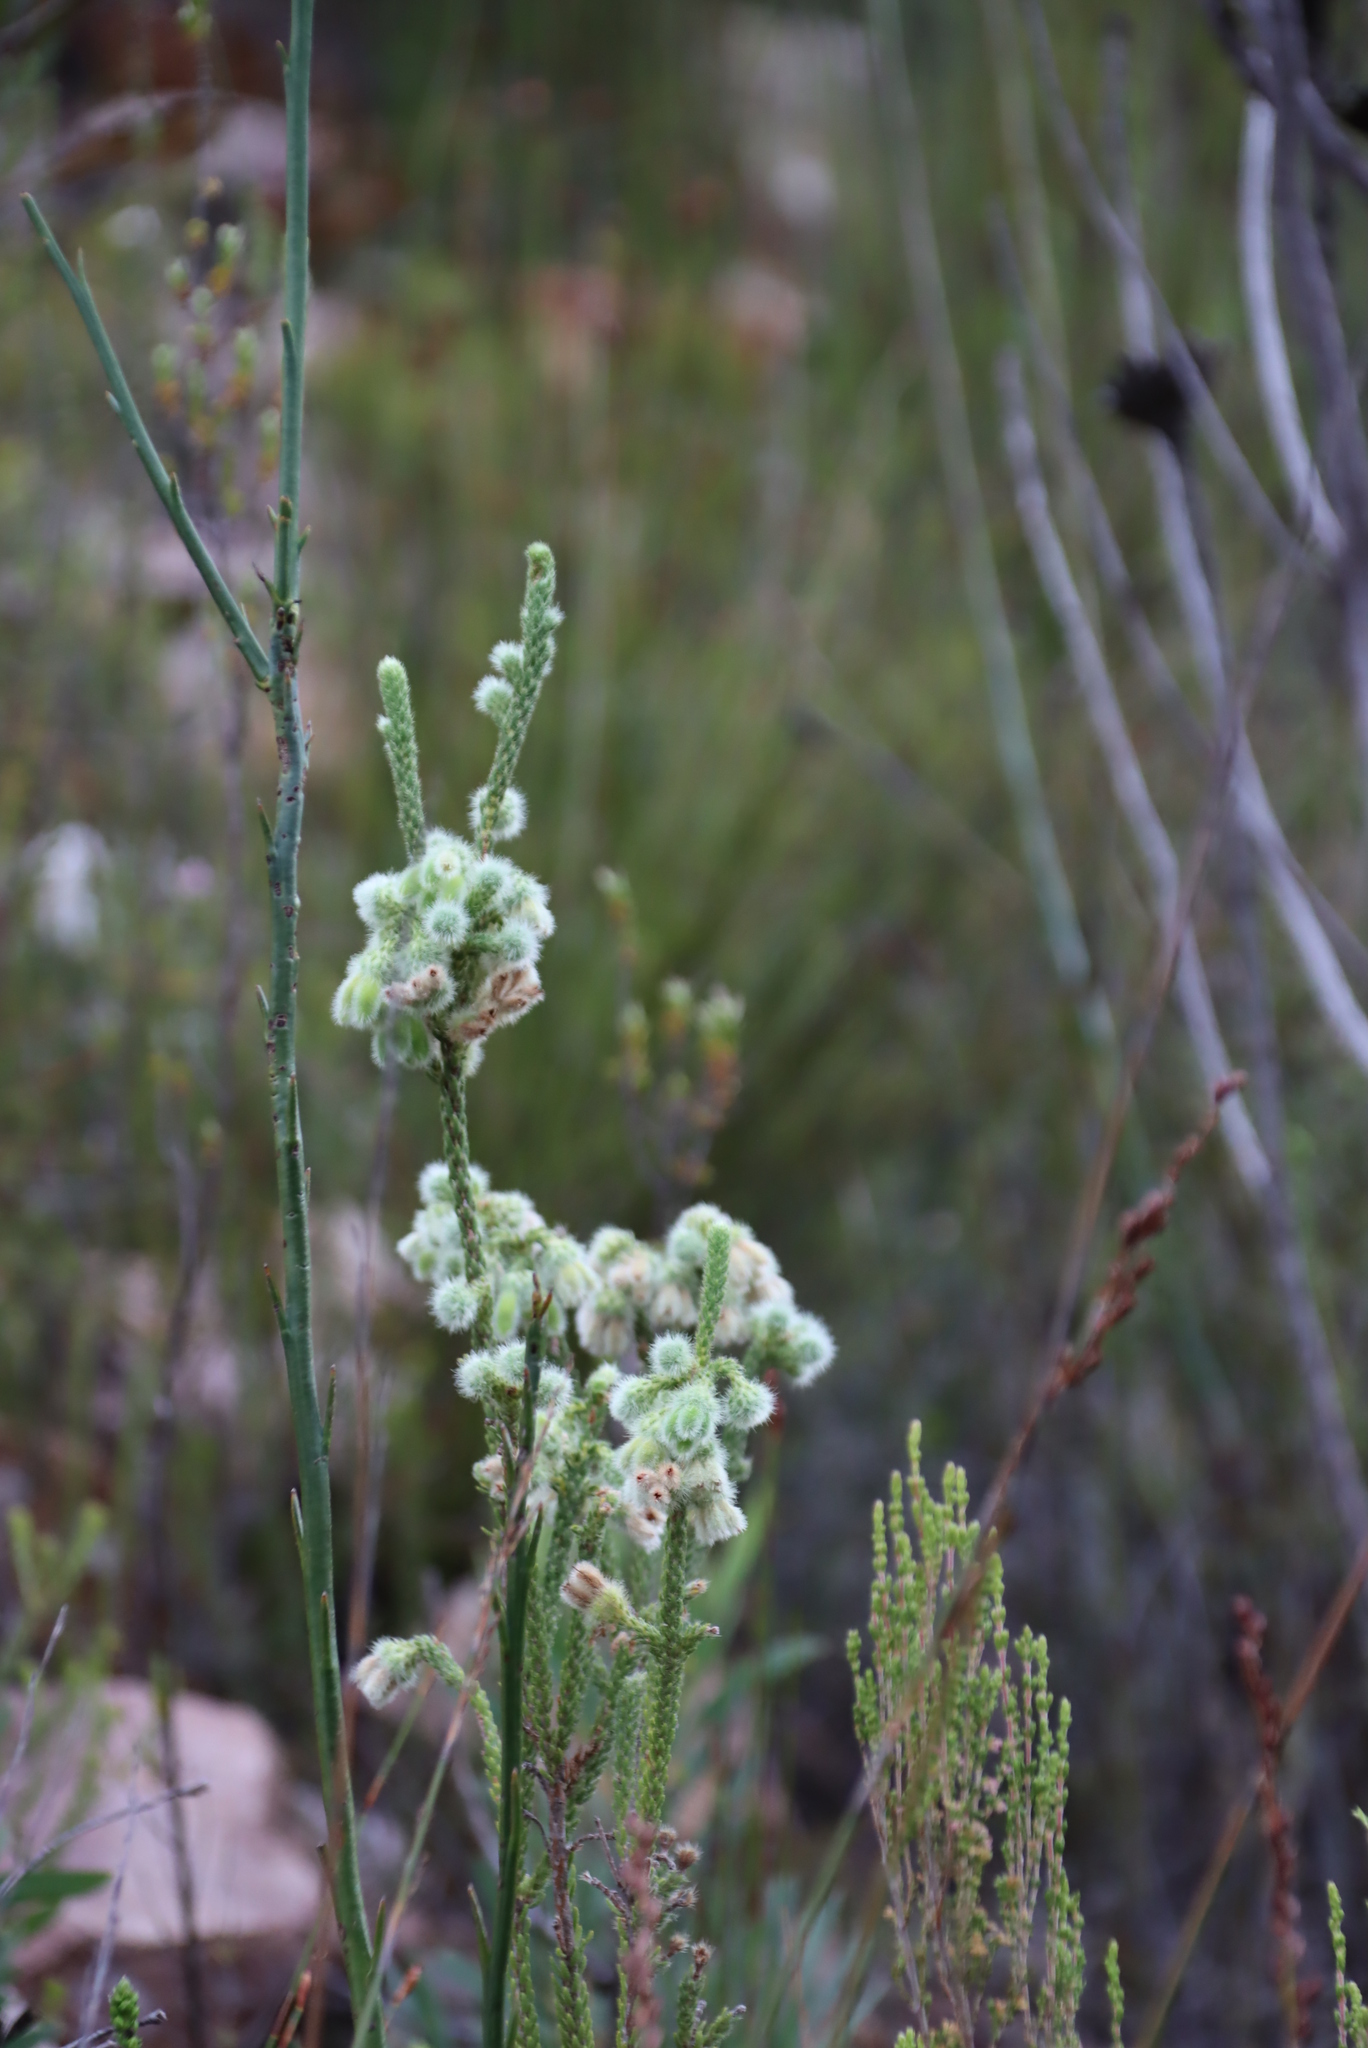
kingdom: Plantae
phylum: Tracheophyta
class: Magnoliopsida
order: Ericales
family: Ericaceae
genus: Erica
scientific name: Erica sparmannii
